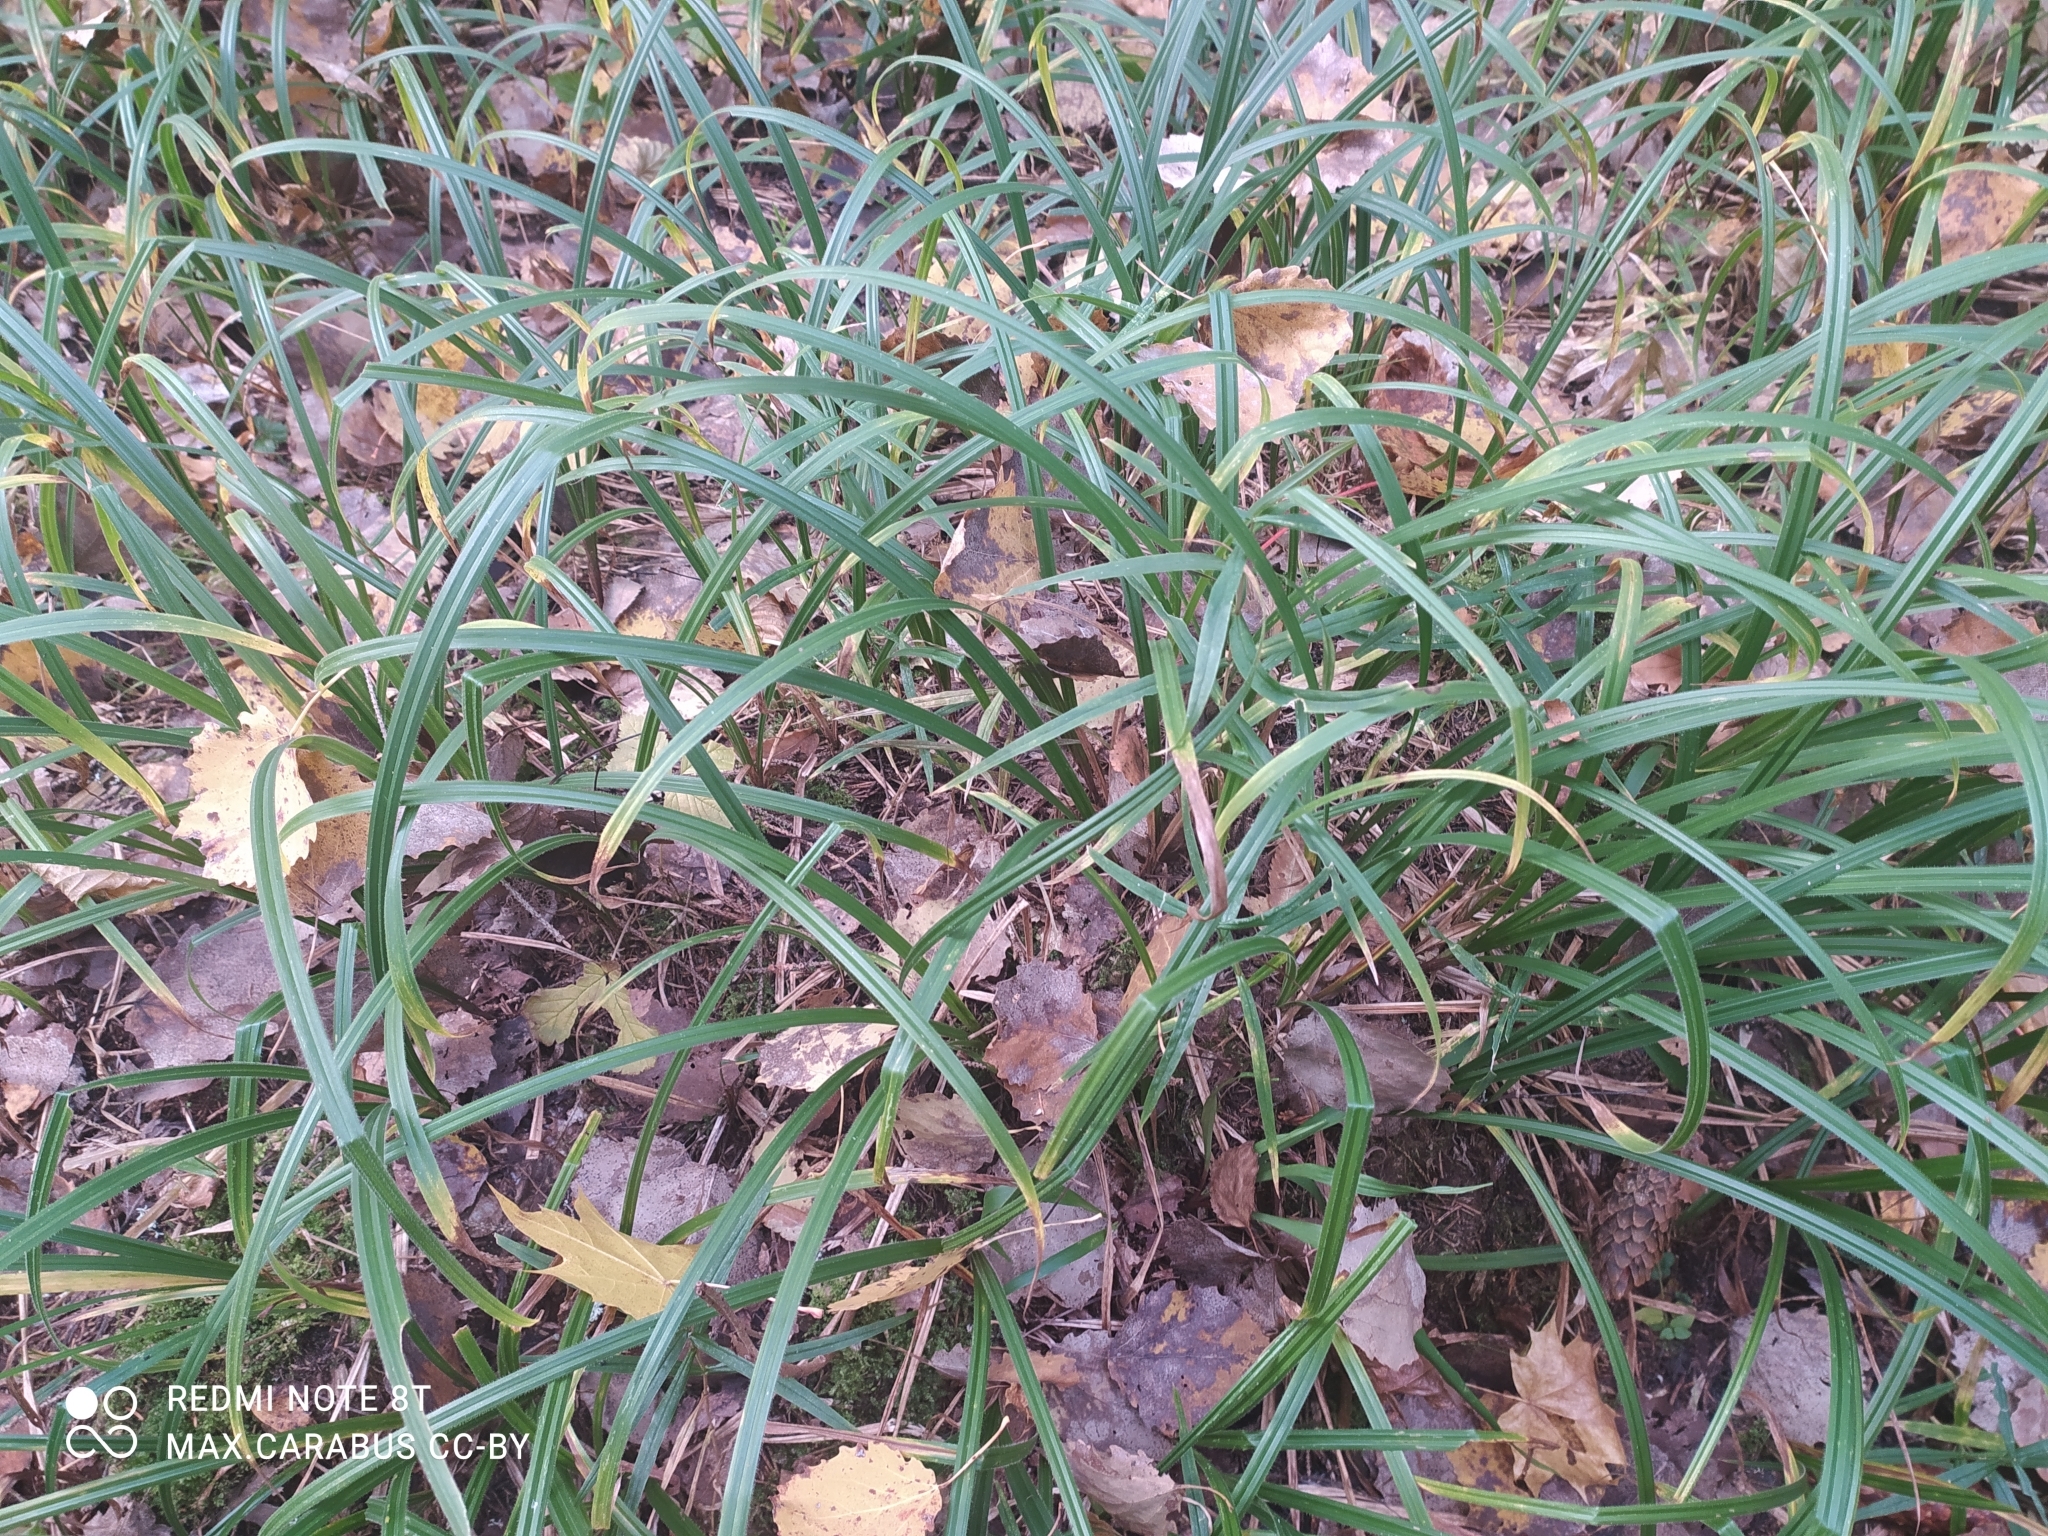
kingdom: Plantae
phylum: Tracheophyta
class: Liliopsida
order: Poales
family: Cyperaceae
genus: Carex
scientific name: Carex pilosa
